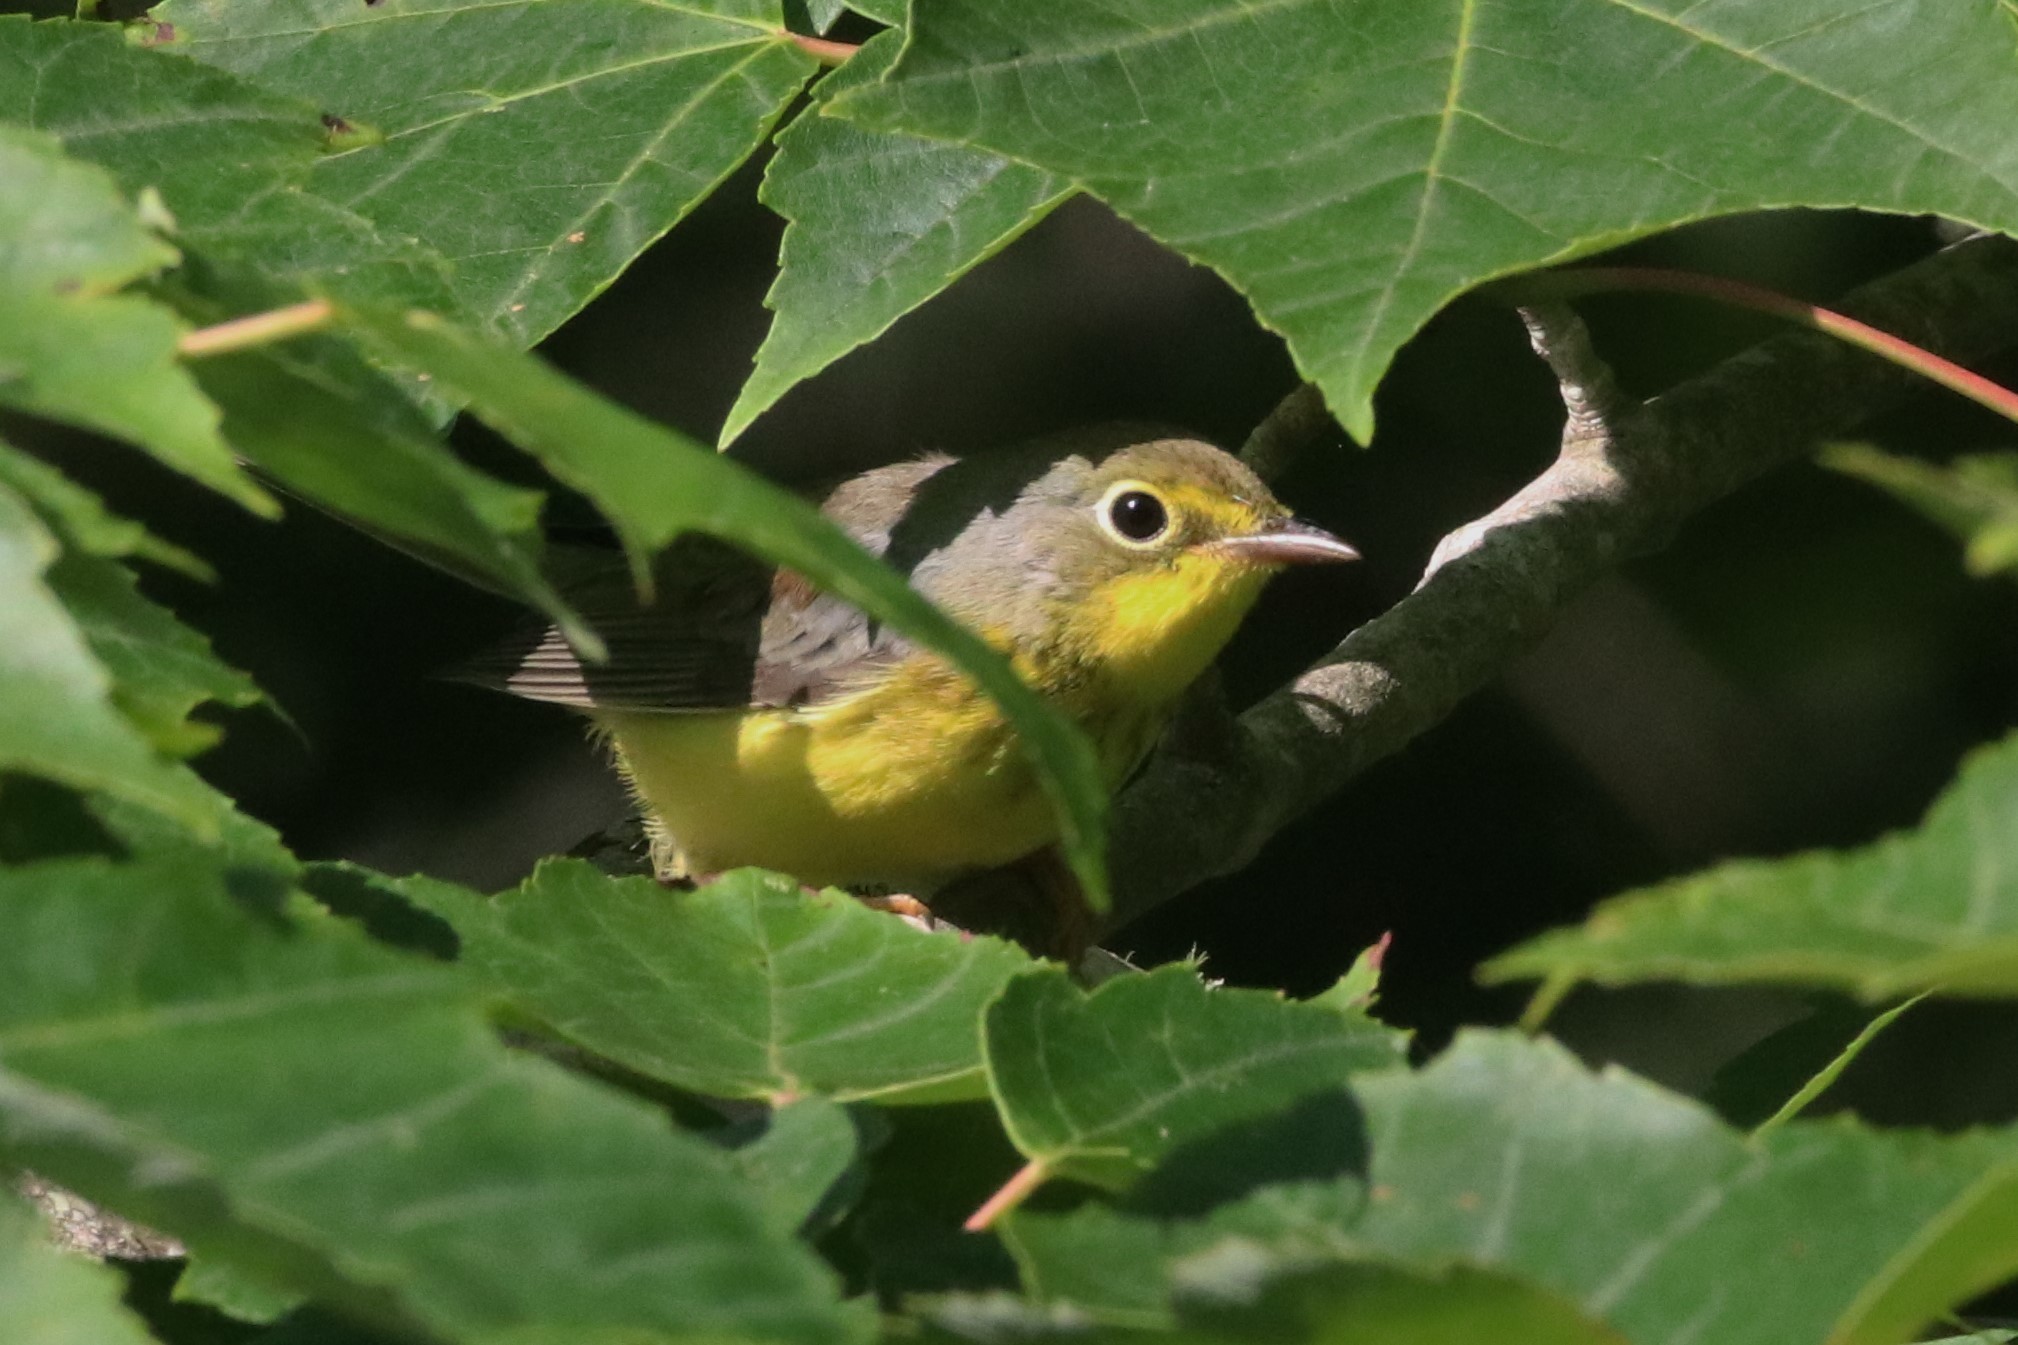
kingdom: Animalia
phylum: Chordata
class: Aves
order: Passeriformes
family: Parulidae
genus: Cardellina
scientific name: Cardellina canadensis
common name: Canada warbler
